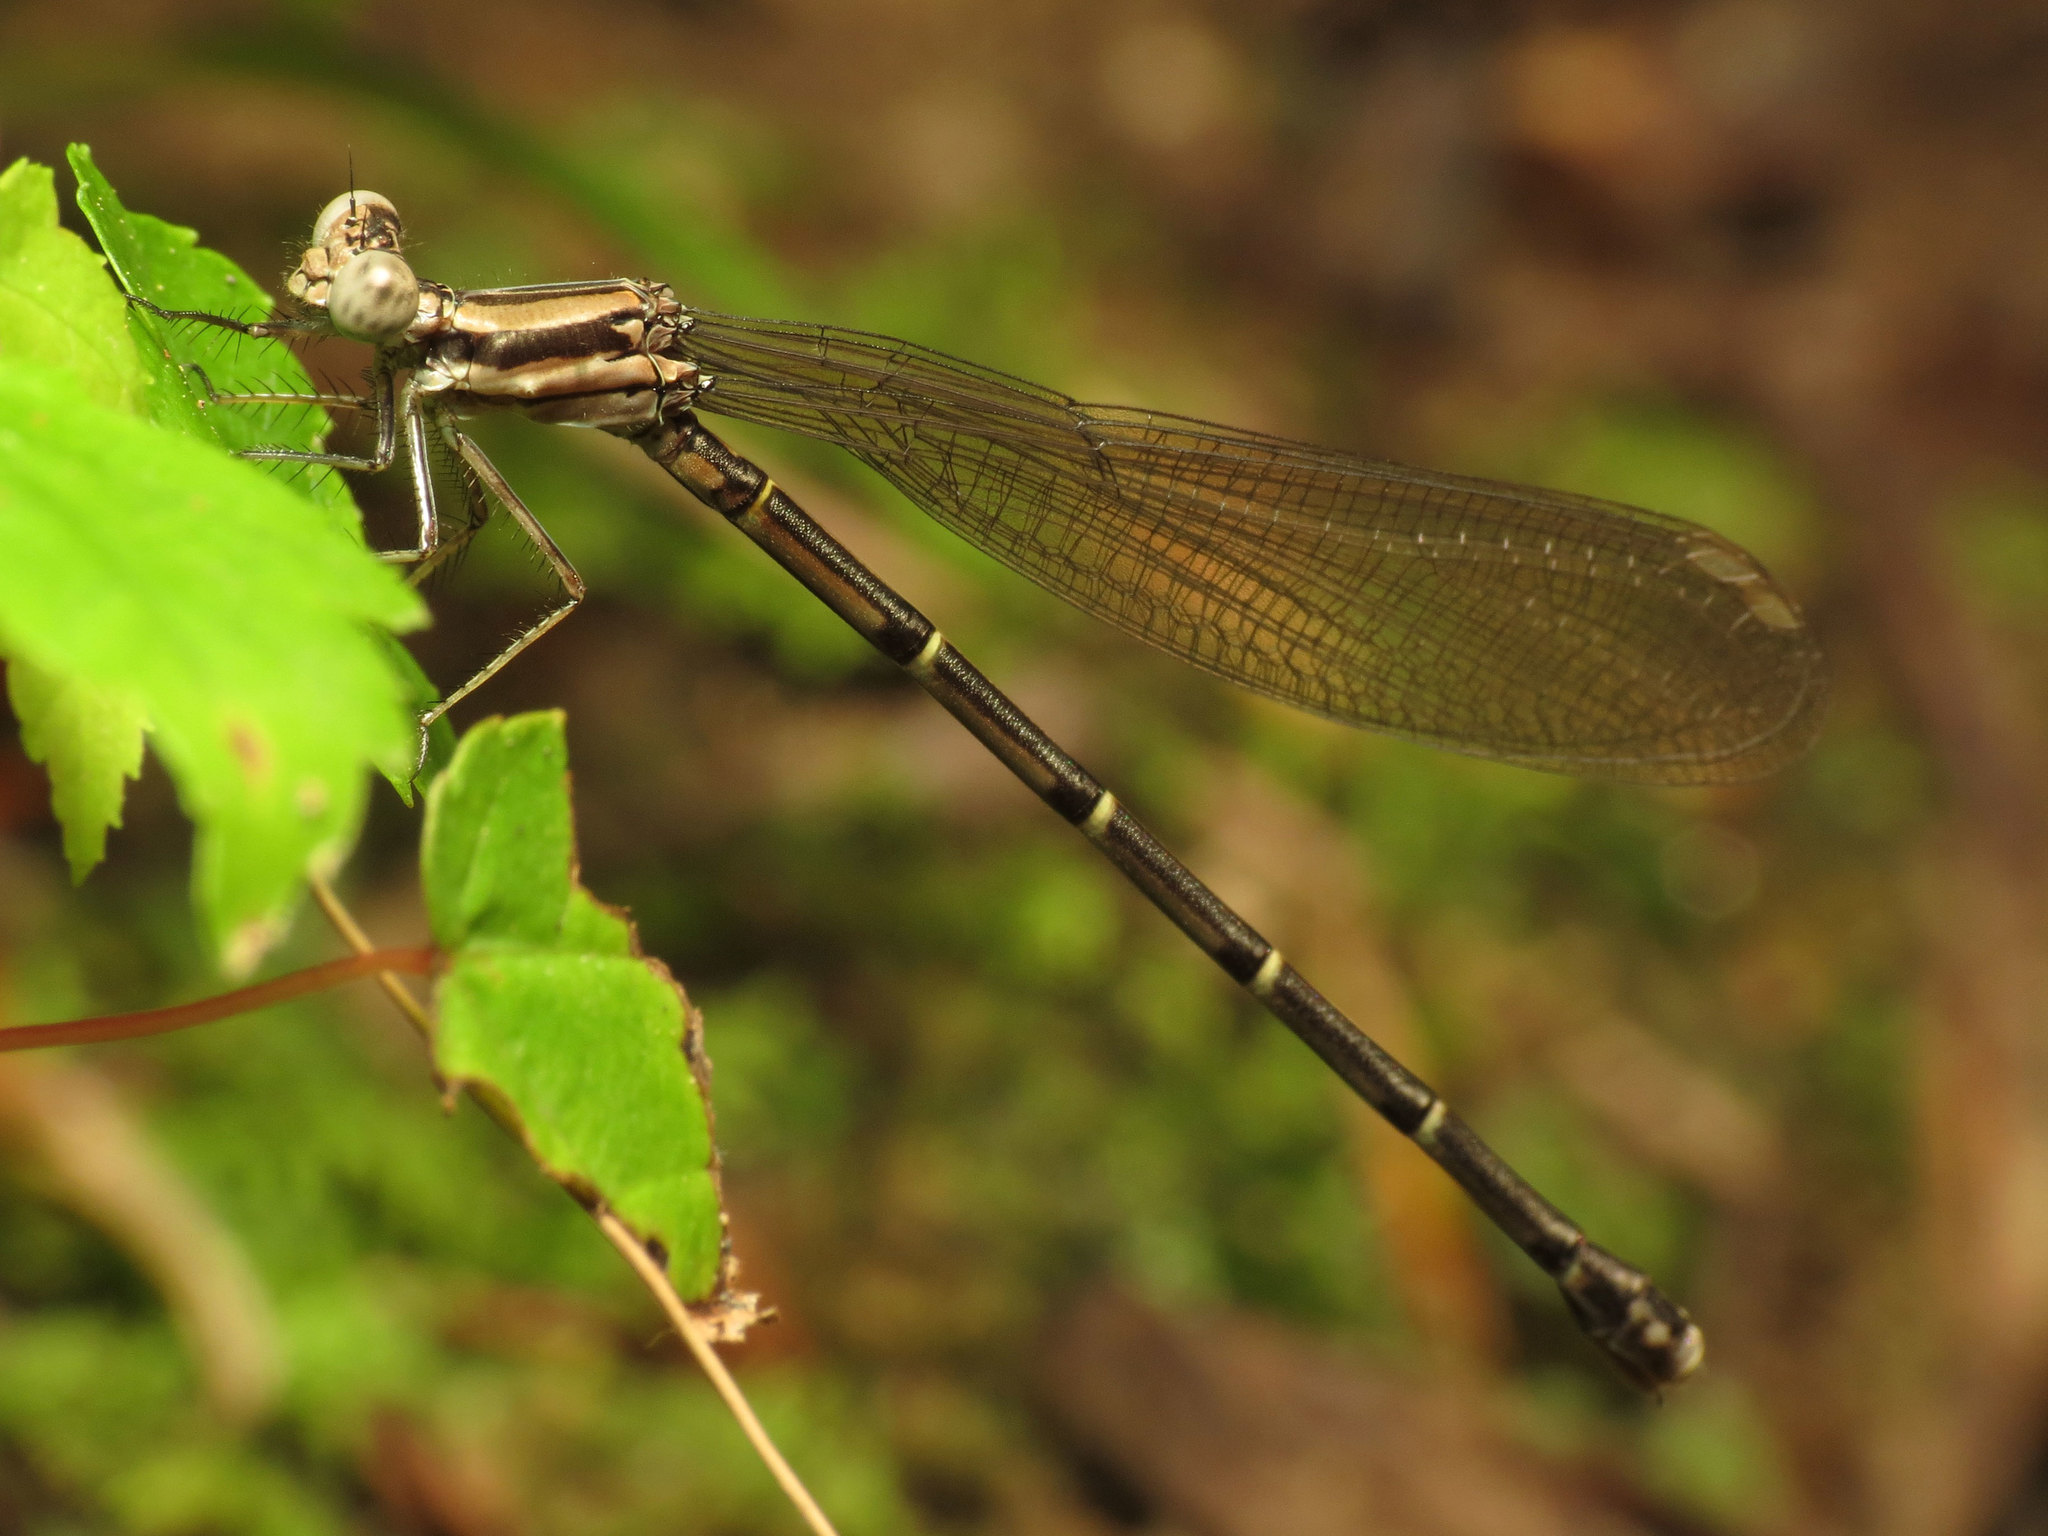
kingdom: Animalia
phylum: Arthropoda
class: Insecta
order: Odonata
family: Coenagrionidae
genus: Argia
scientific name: Argia tibialis
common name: Blue-tipped dancer
